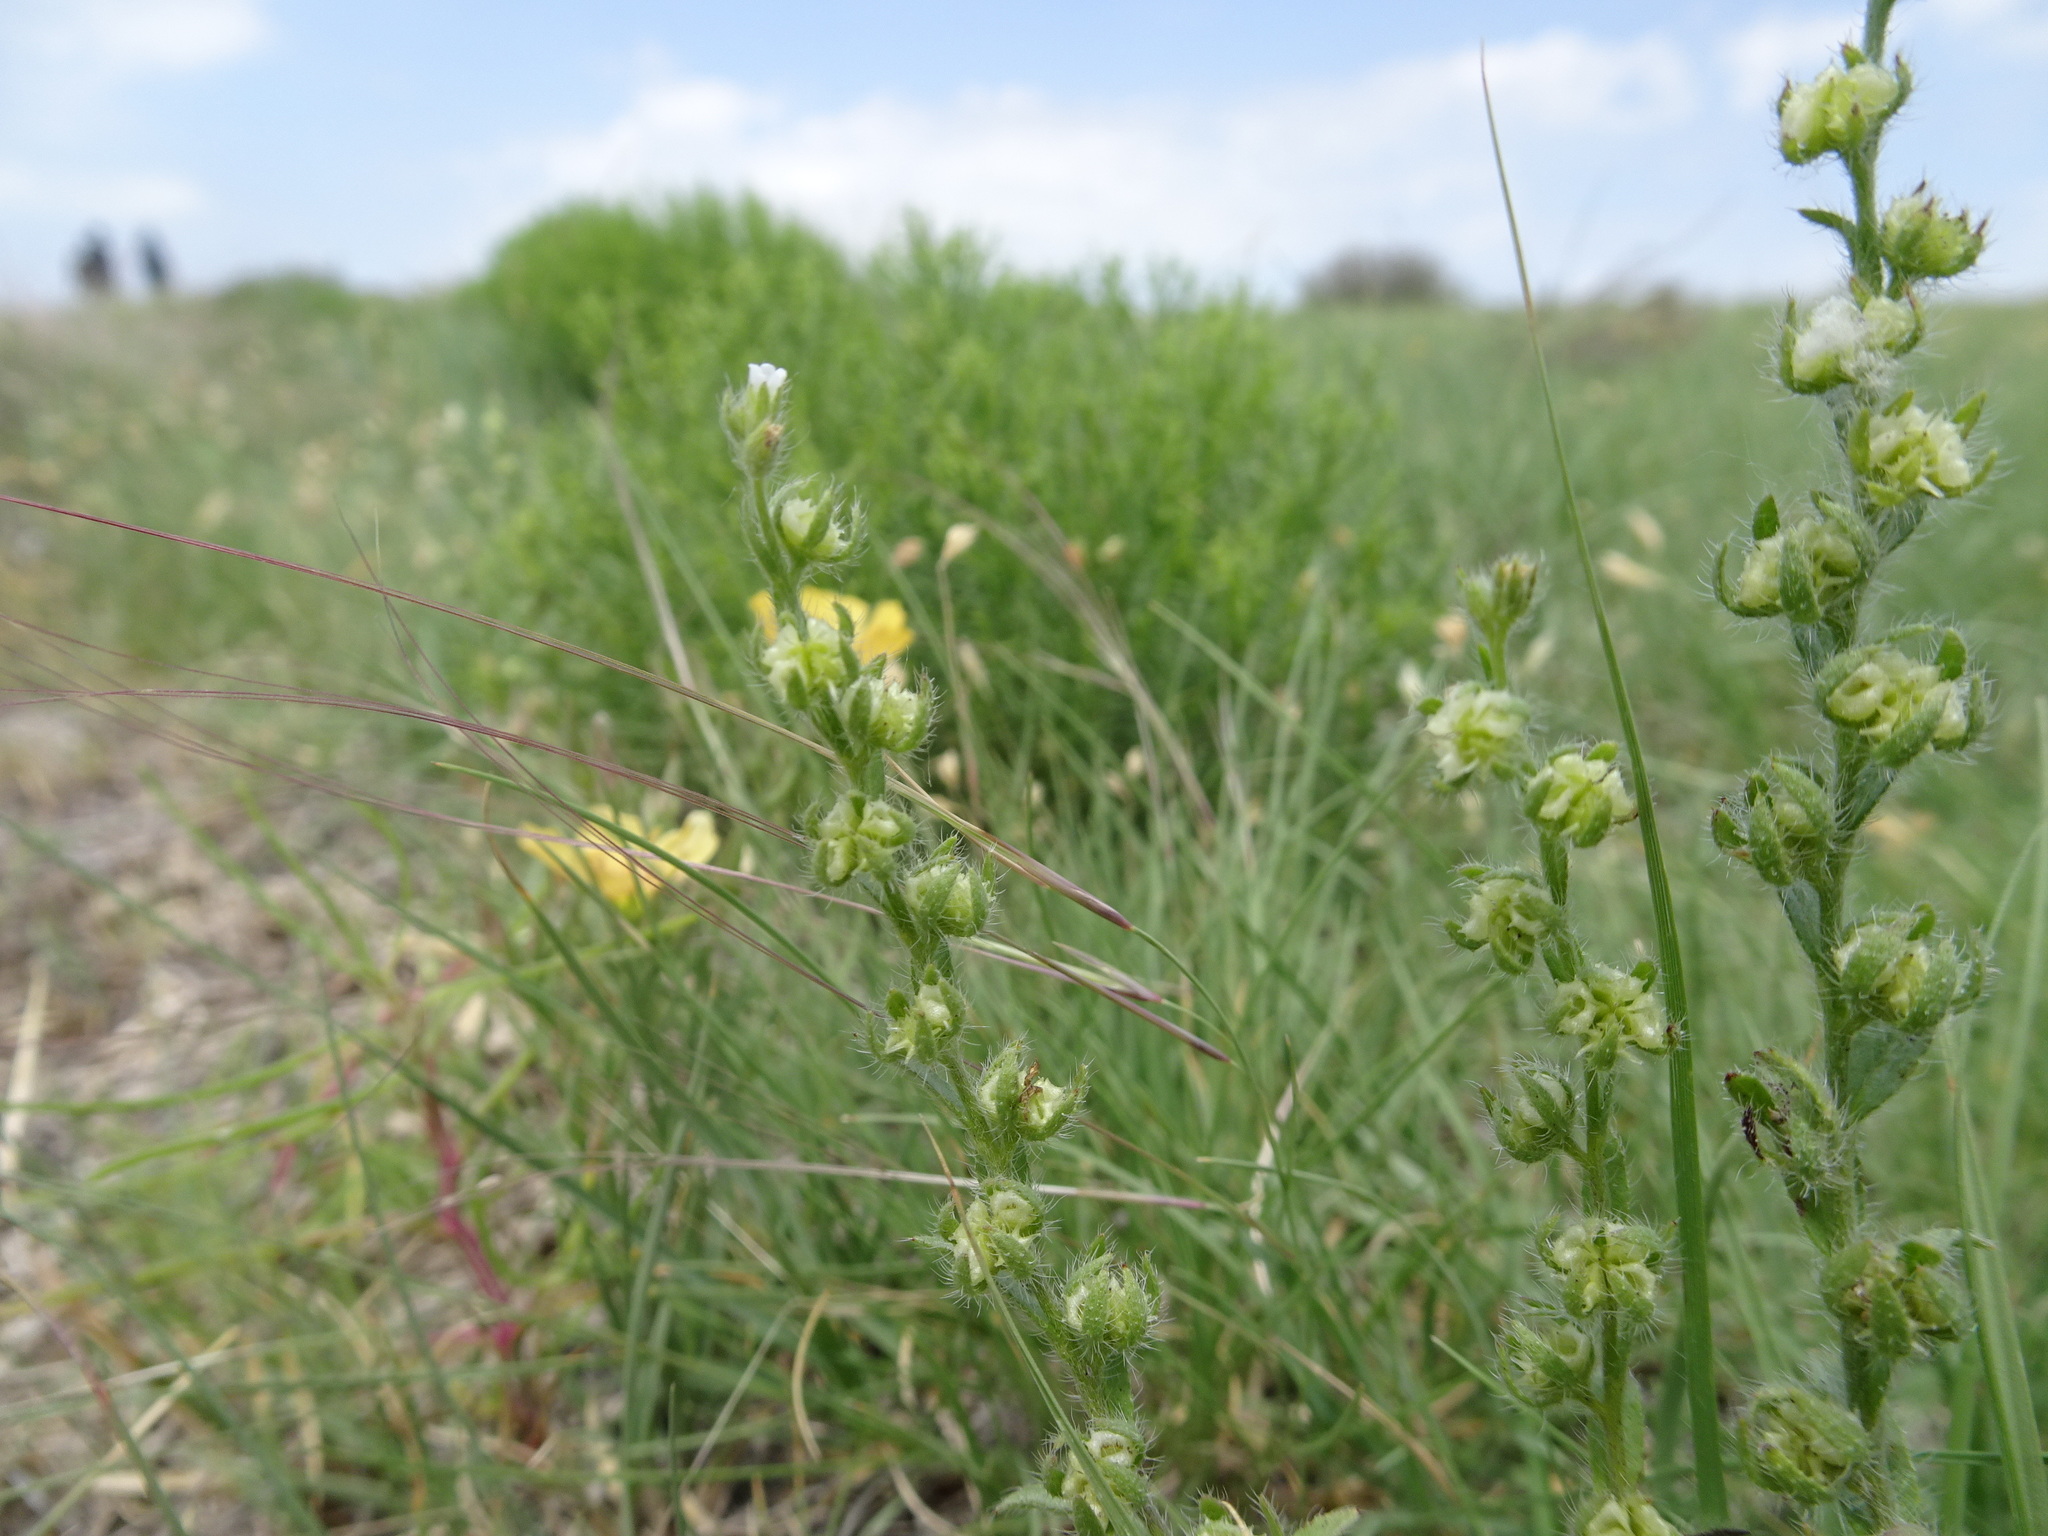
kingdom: Plantae
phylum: Tracheophyta
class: Magnoliopsida
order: Boraginales
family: Boraginaceae
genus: Lappula
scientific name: Lappula occidentalis
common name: Western stickseed
